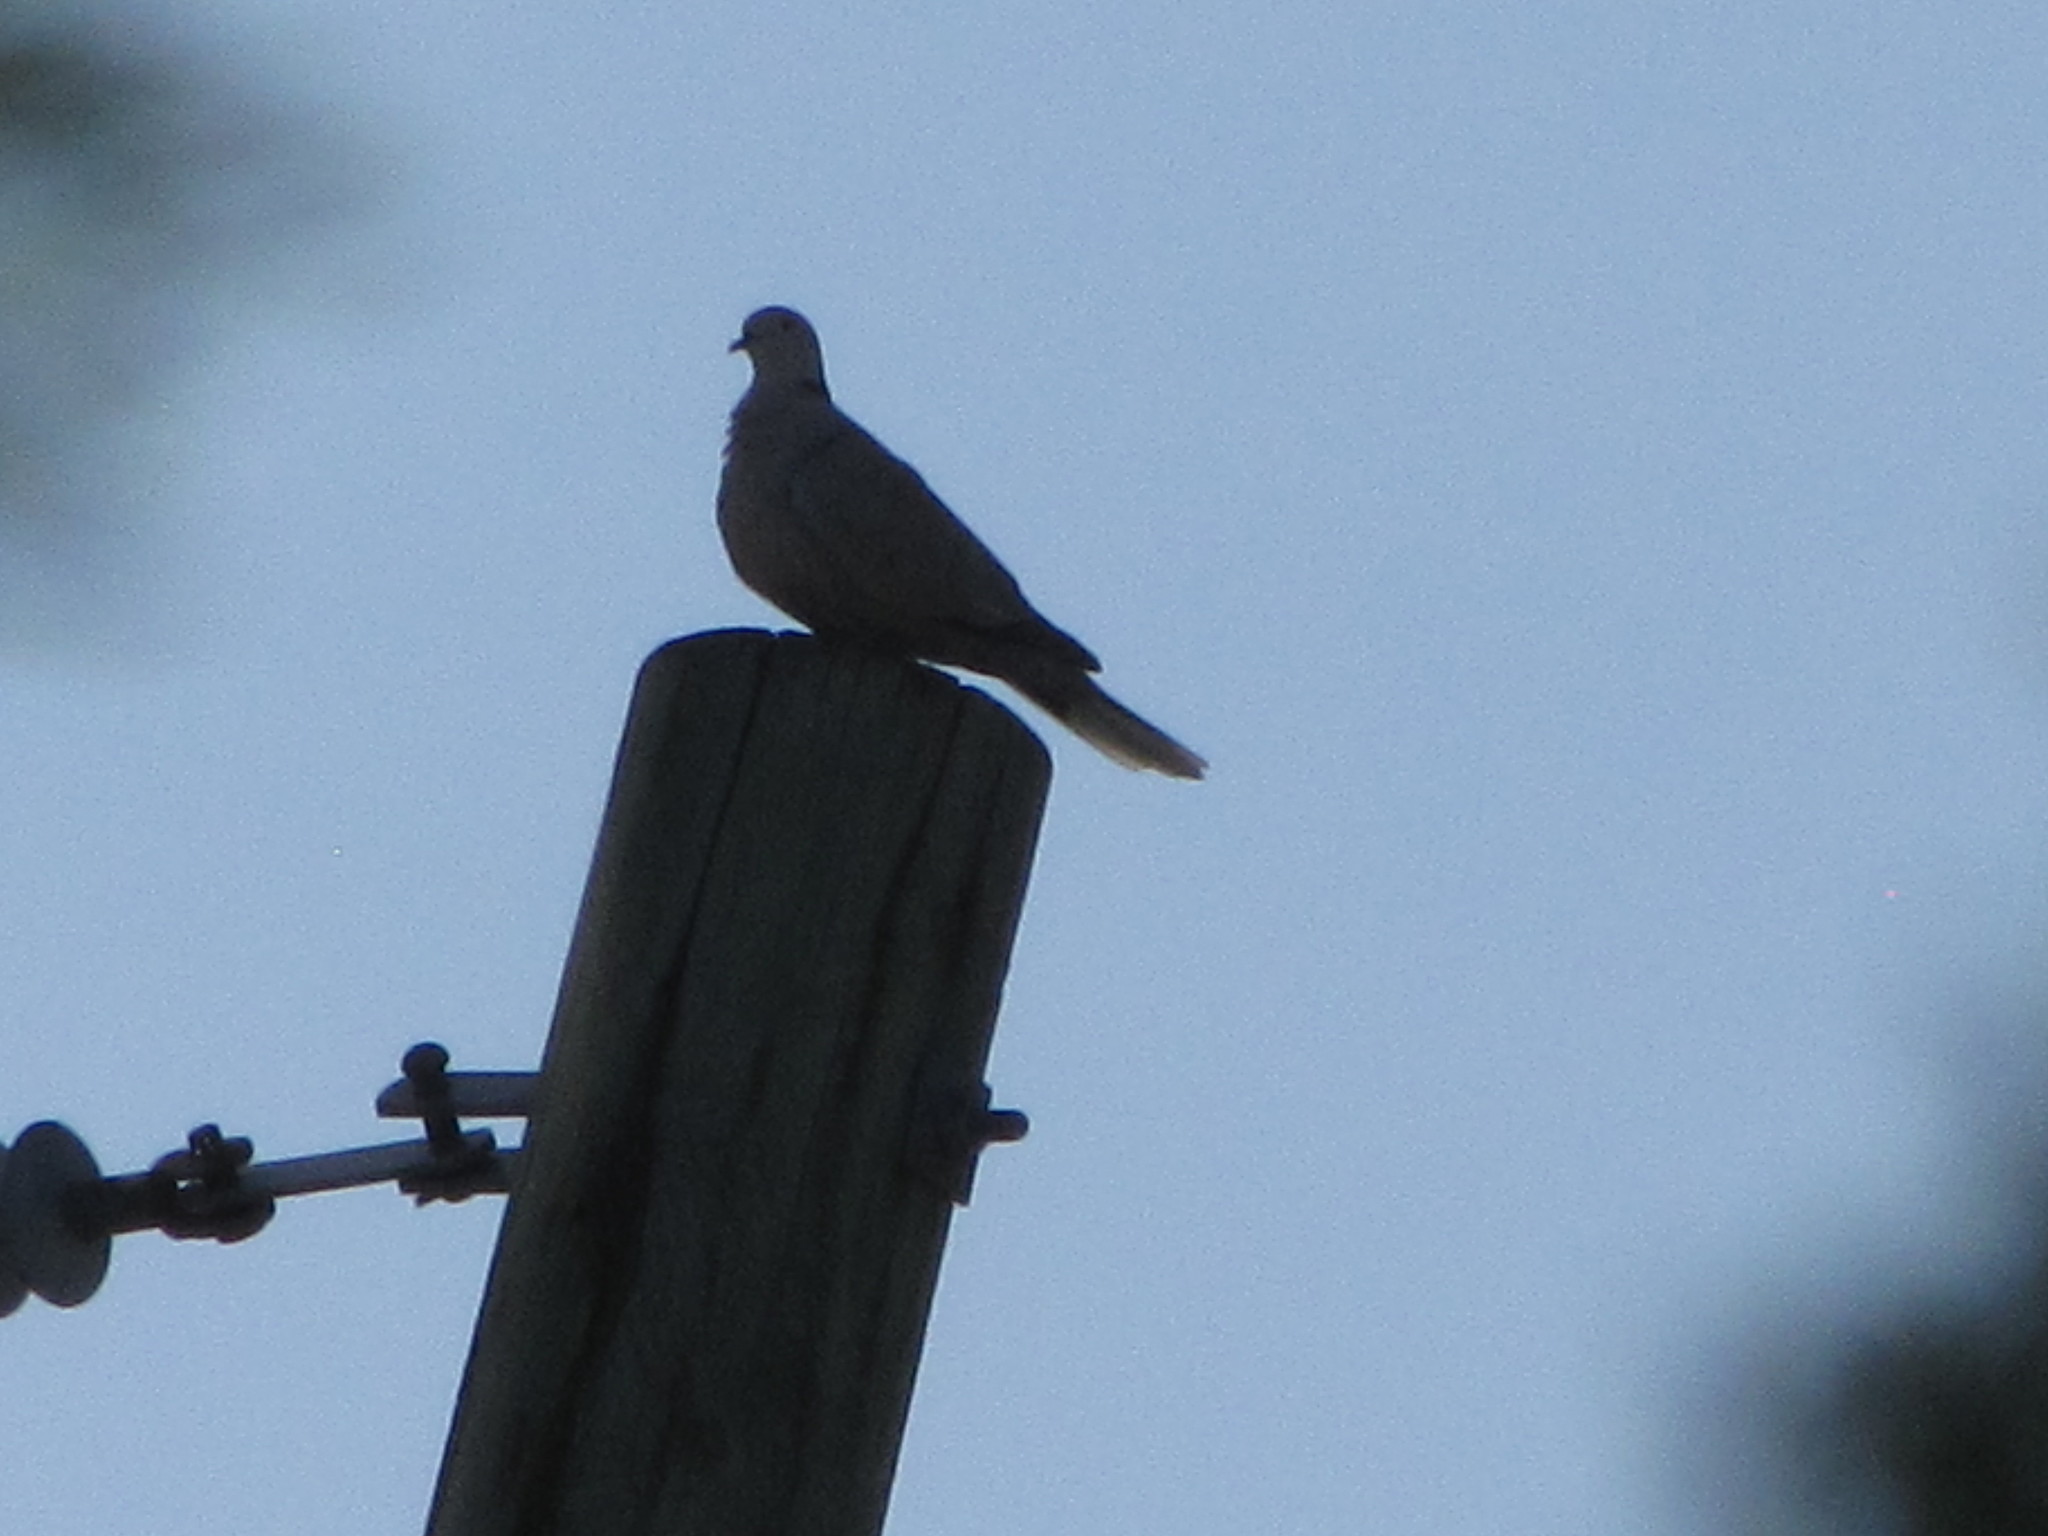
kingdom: Animalia
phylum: Chordata
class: Aves
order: Columbiformes
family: Columbidae
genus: Streptopelia
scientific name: Streptopelia decaocto
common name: Eurasian collared dove
